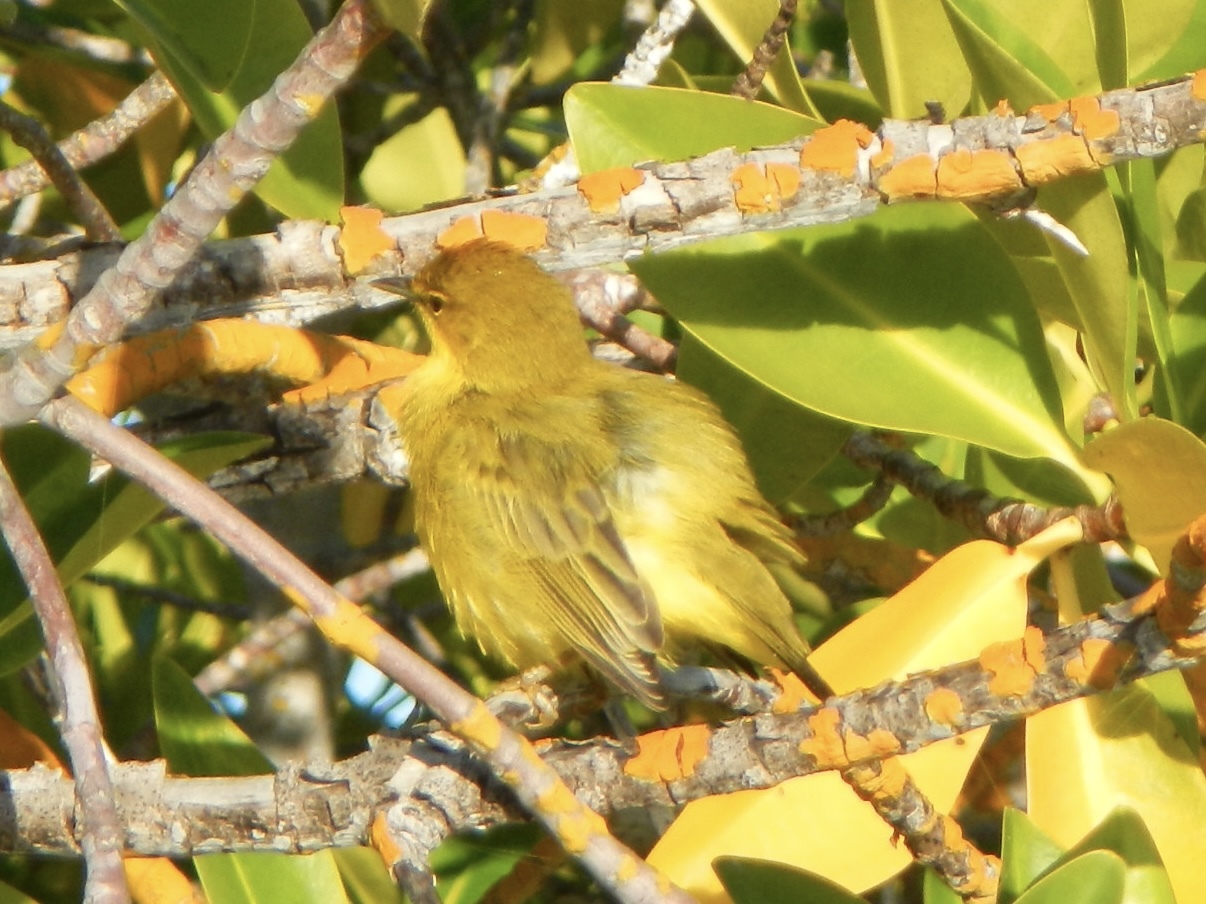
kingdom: Animalia
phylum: Chordata
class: Aves
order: Passeriformes
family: Parulidae
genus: Setophaga
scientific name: Setophaga petechia
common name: Yellow warbler
